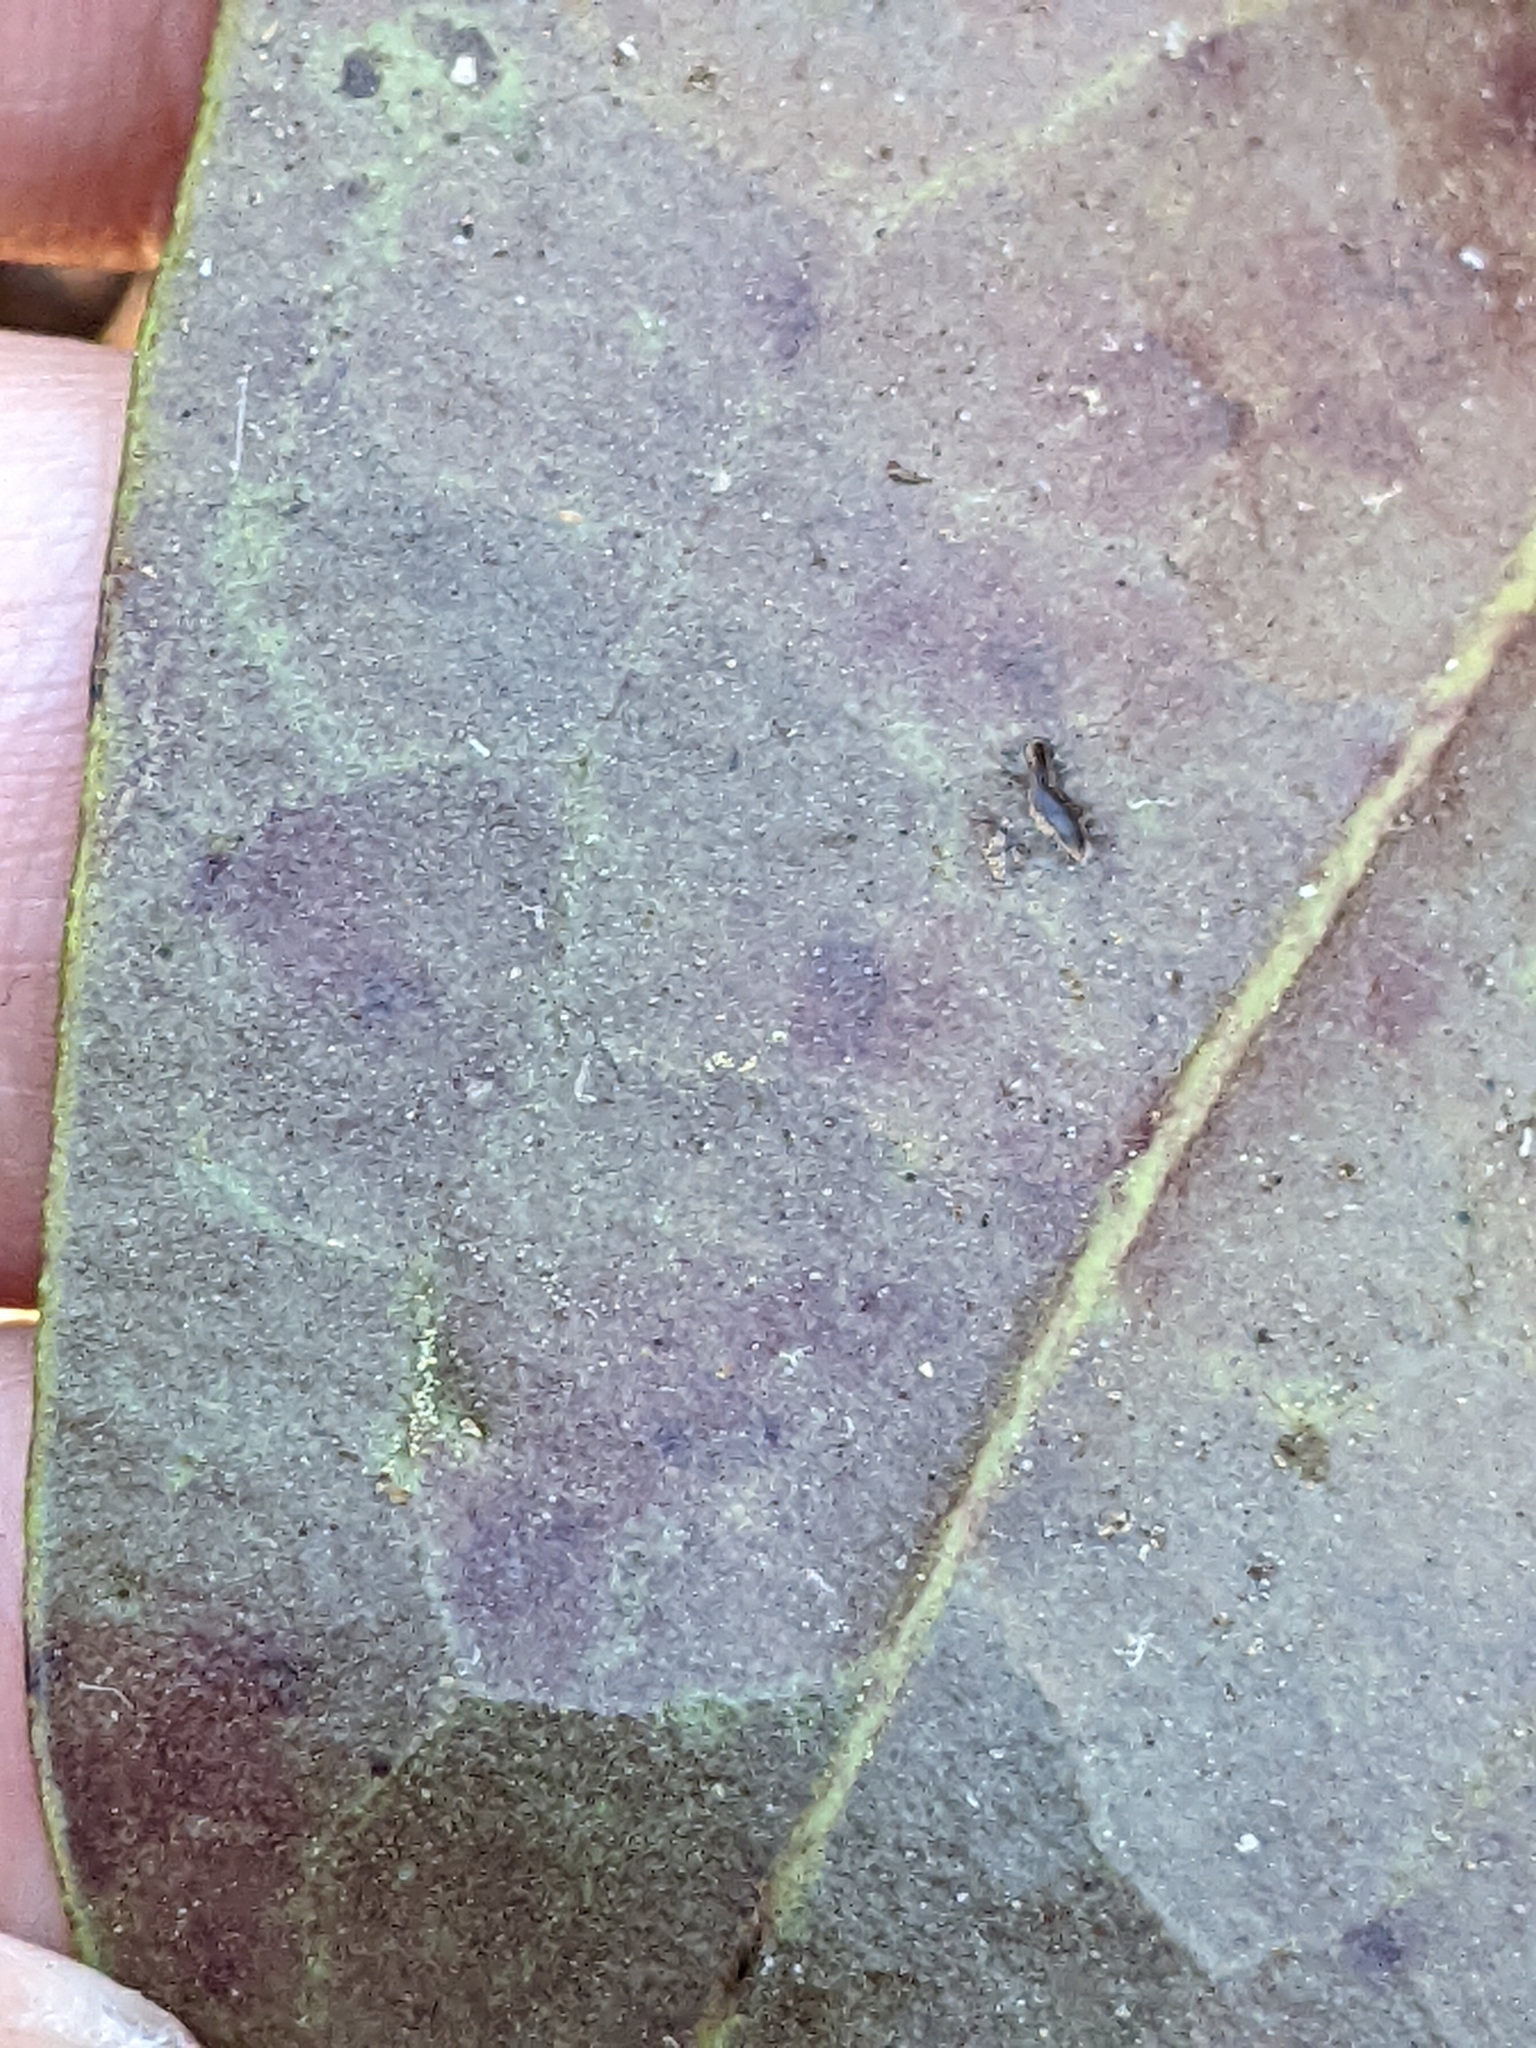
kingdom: Plantae
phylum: Tracheophyta
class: Magnoliopsida
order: Piperales
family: Aristolochiaceae
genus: Hexastylis
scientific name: Hexastylis arifolia
